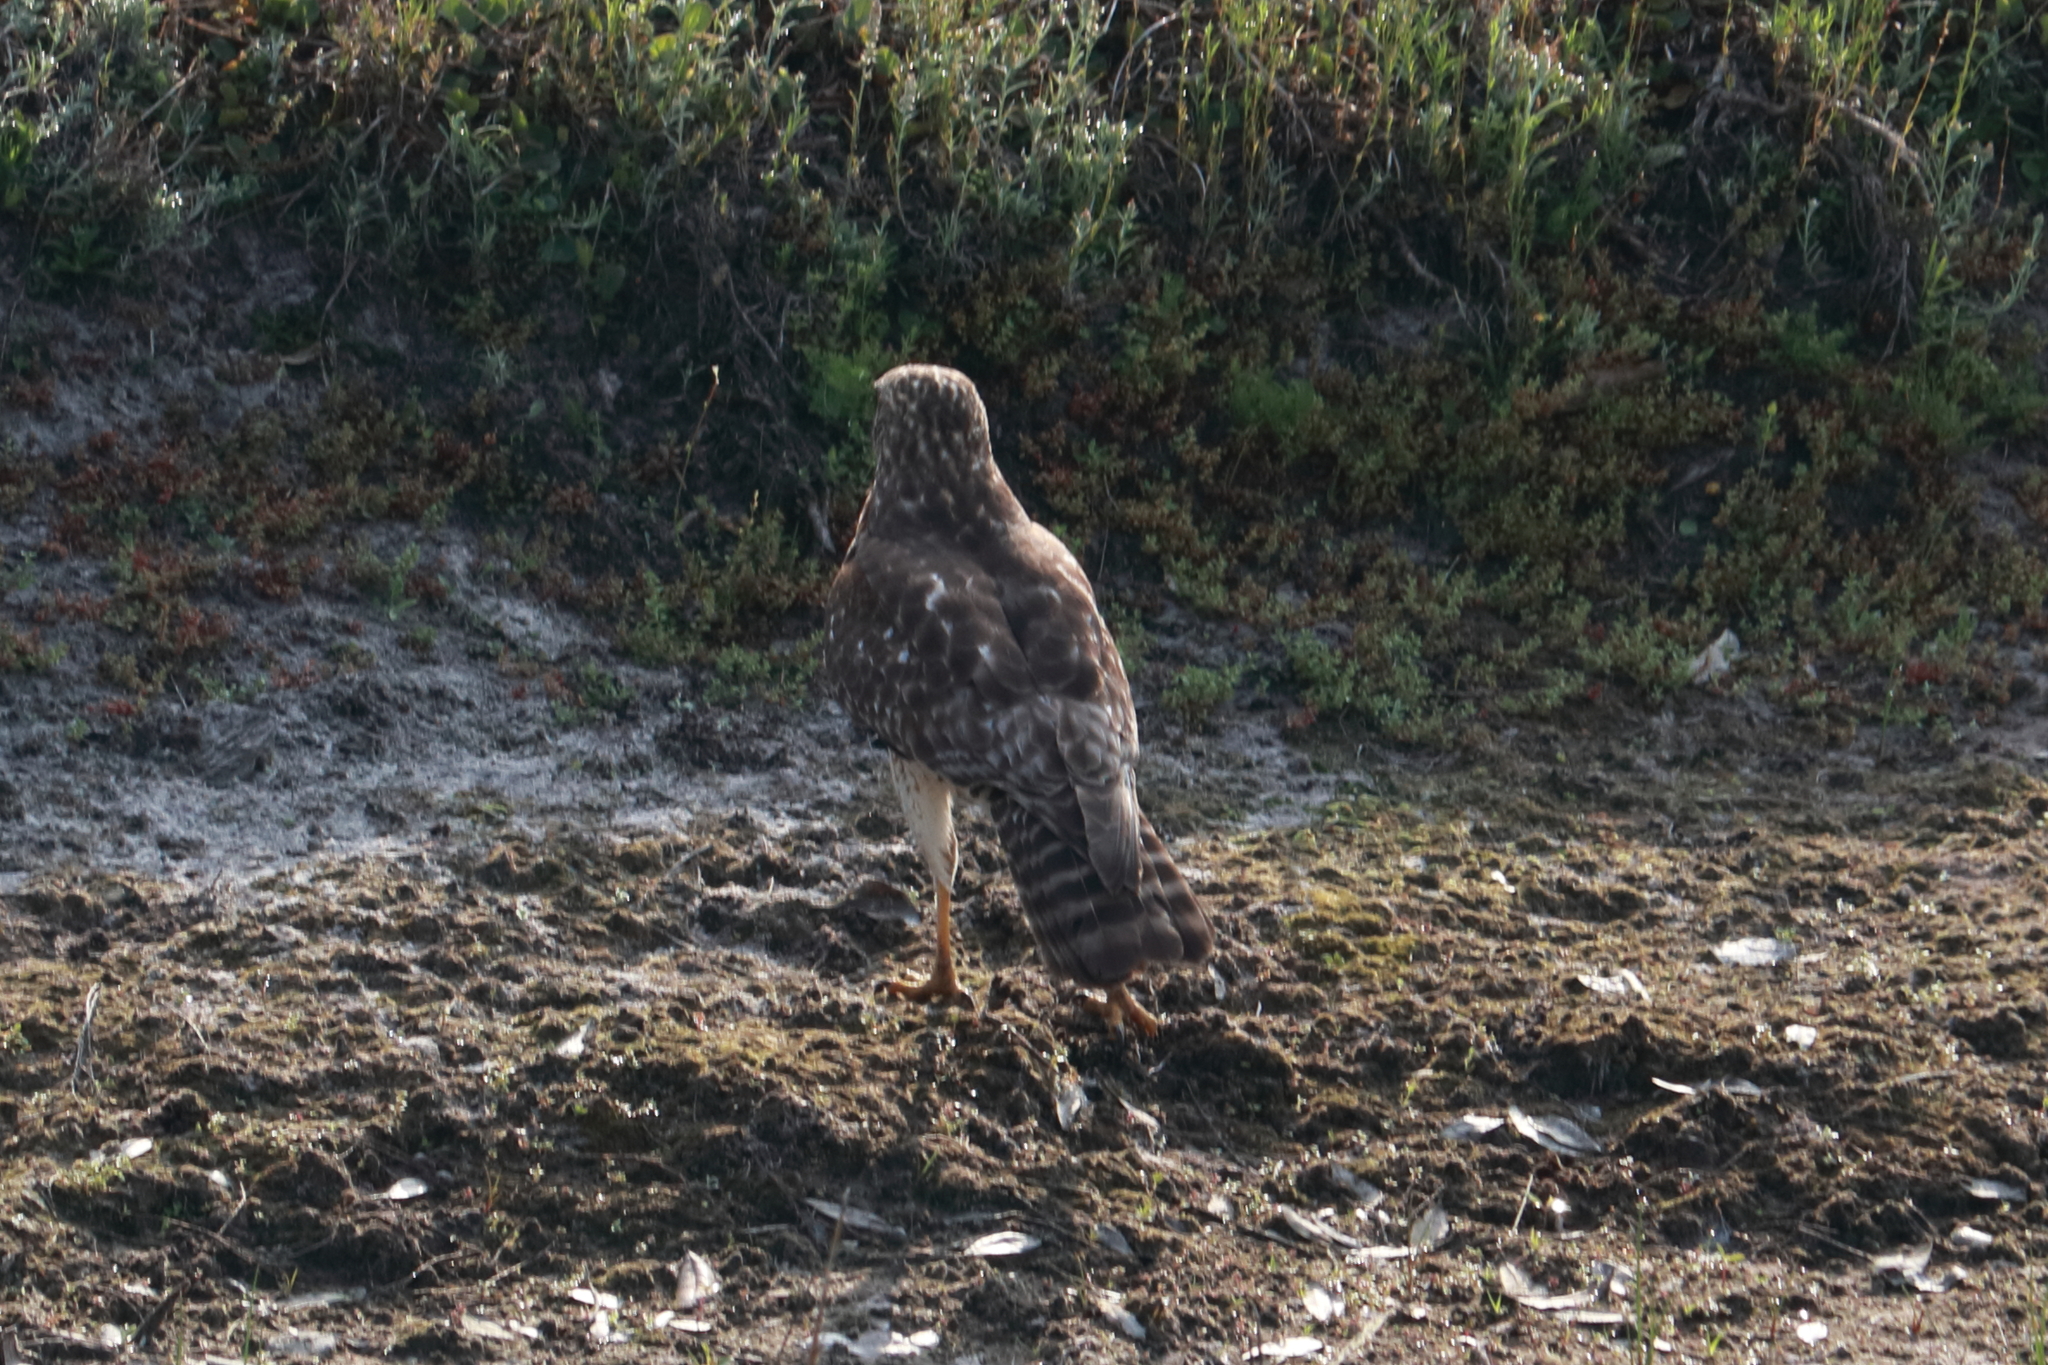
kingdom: Animalia
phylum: Chordata
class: Aves
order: Accipitriformes
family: Accipitridae
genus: Buteo
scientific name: Buteo jamaicensis
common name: Red-tailed hawk
